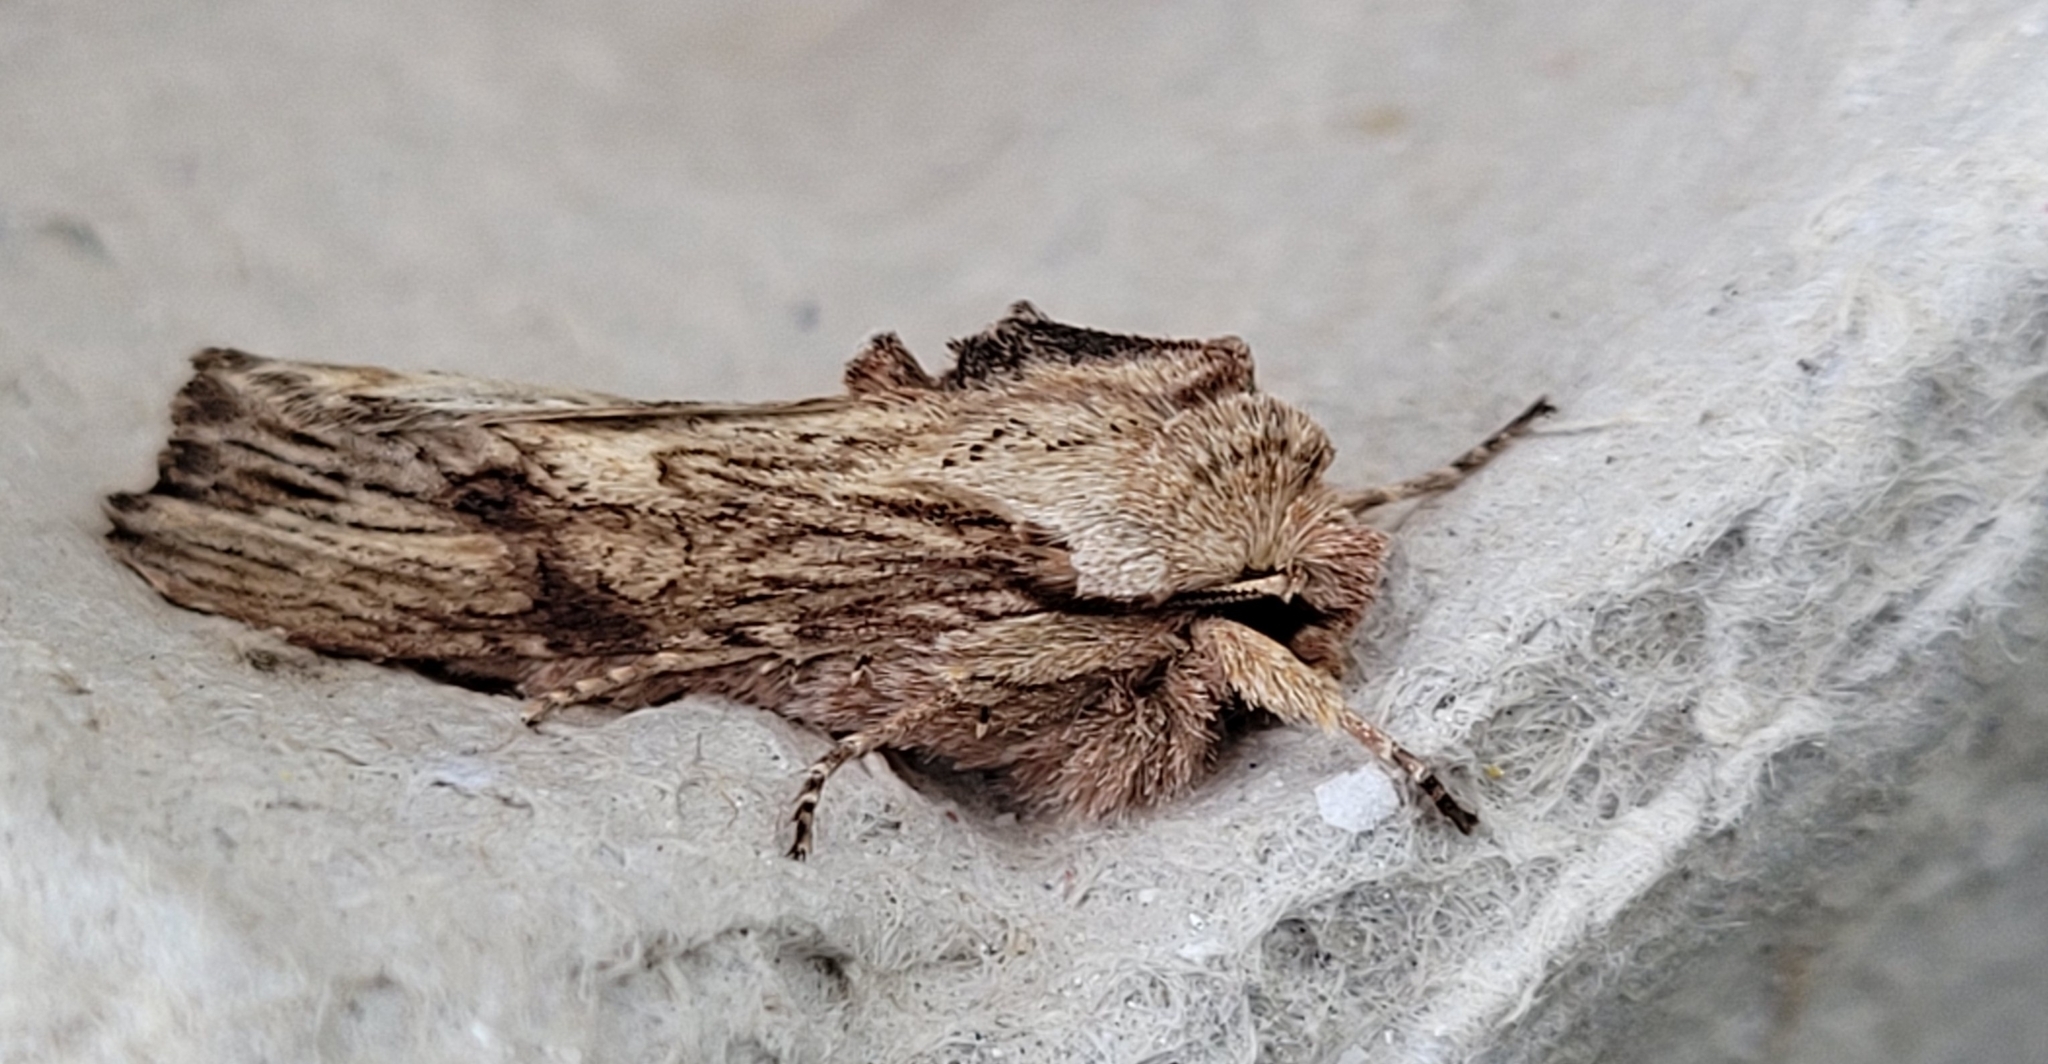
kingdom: Animalia
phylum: Arthropoda
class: Insecta
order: Lepidoptera
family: Noctuidae
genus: Egira
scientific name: Egira conspicillaris
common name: Silver cloud
